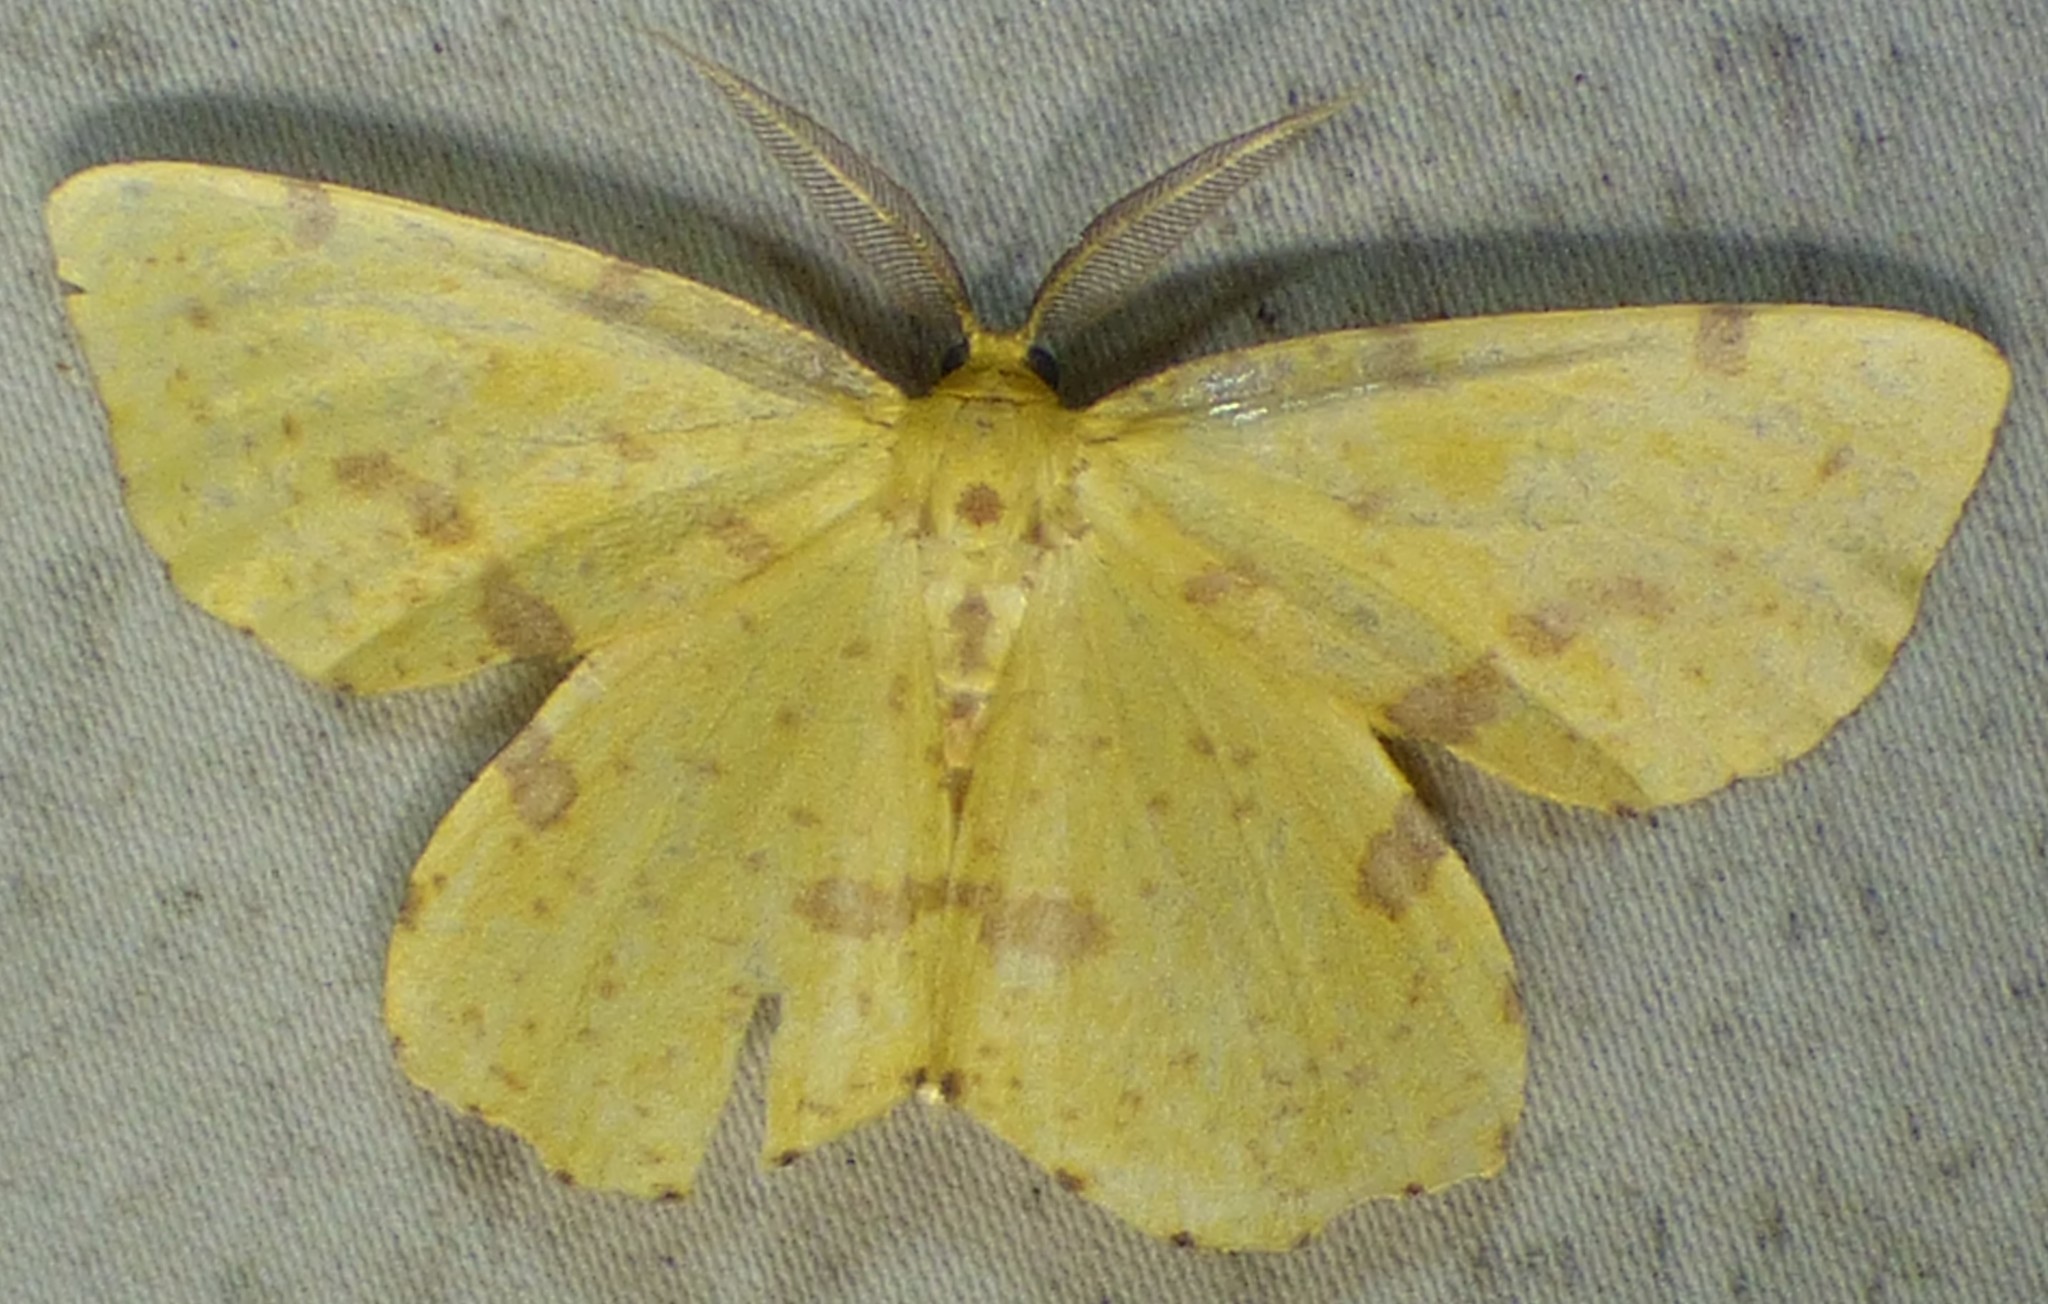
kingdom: Animalia
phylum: Arthropoda
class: Insecta
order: Lepidoptera
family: Geometridae
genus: Xanthotype
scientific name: Xanthotype
